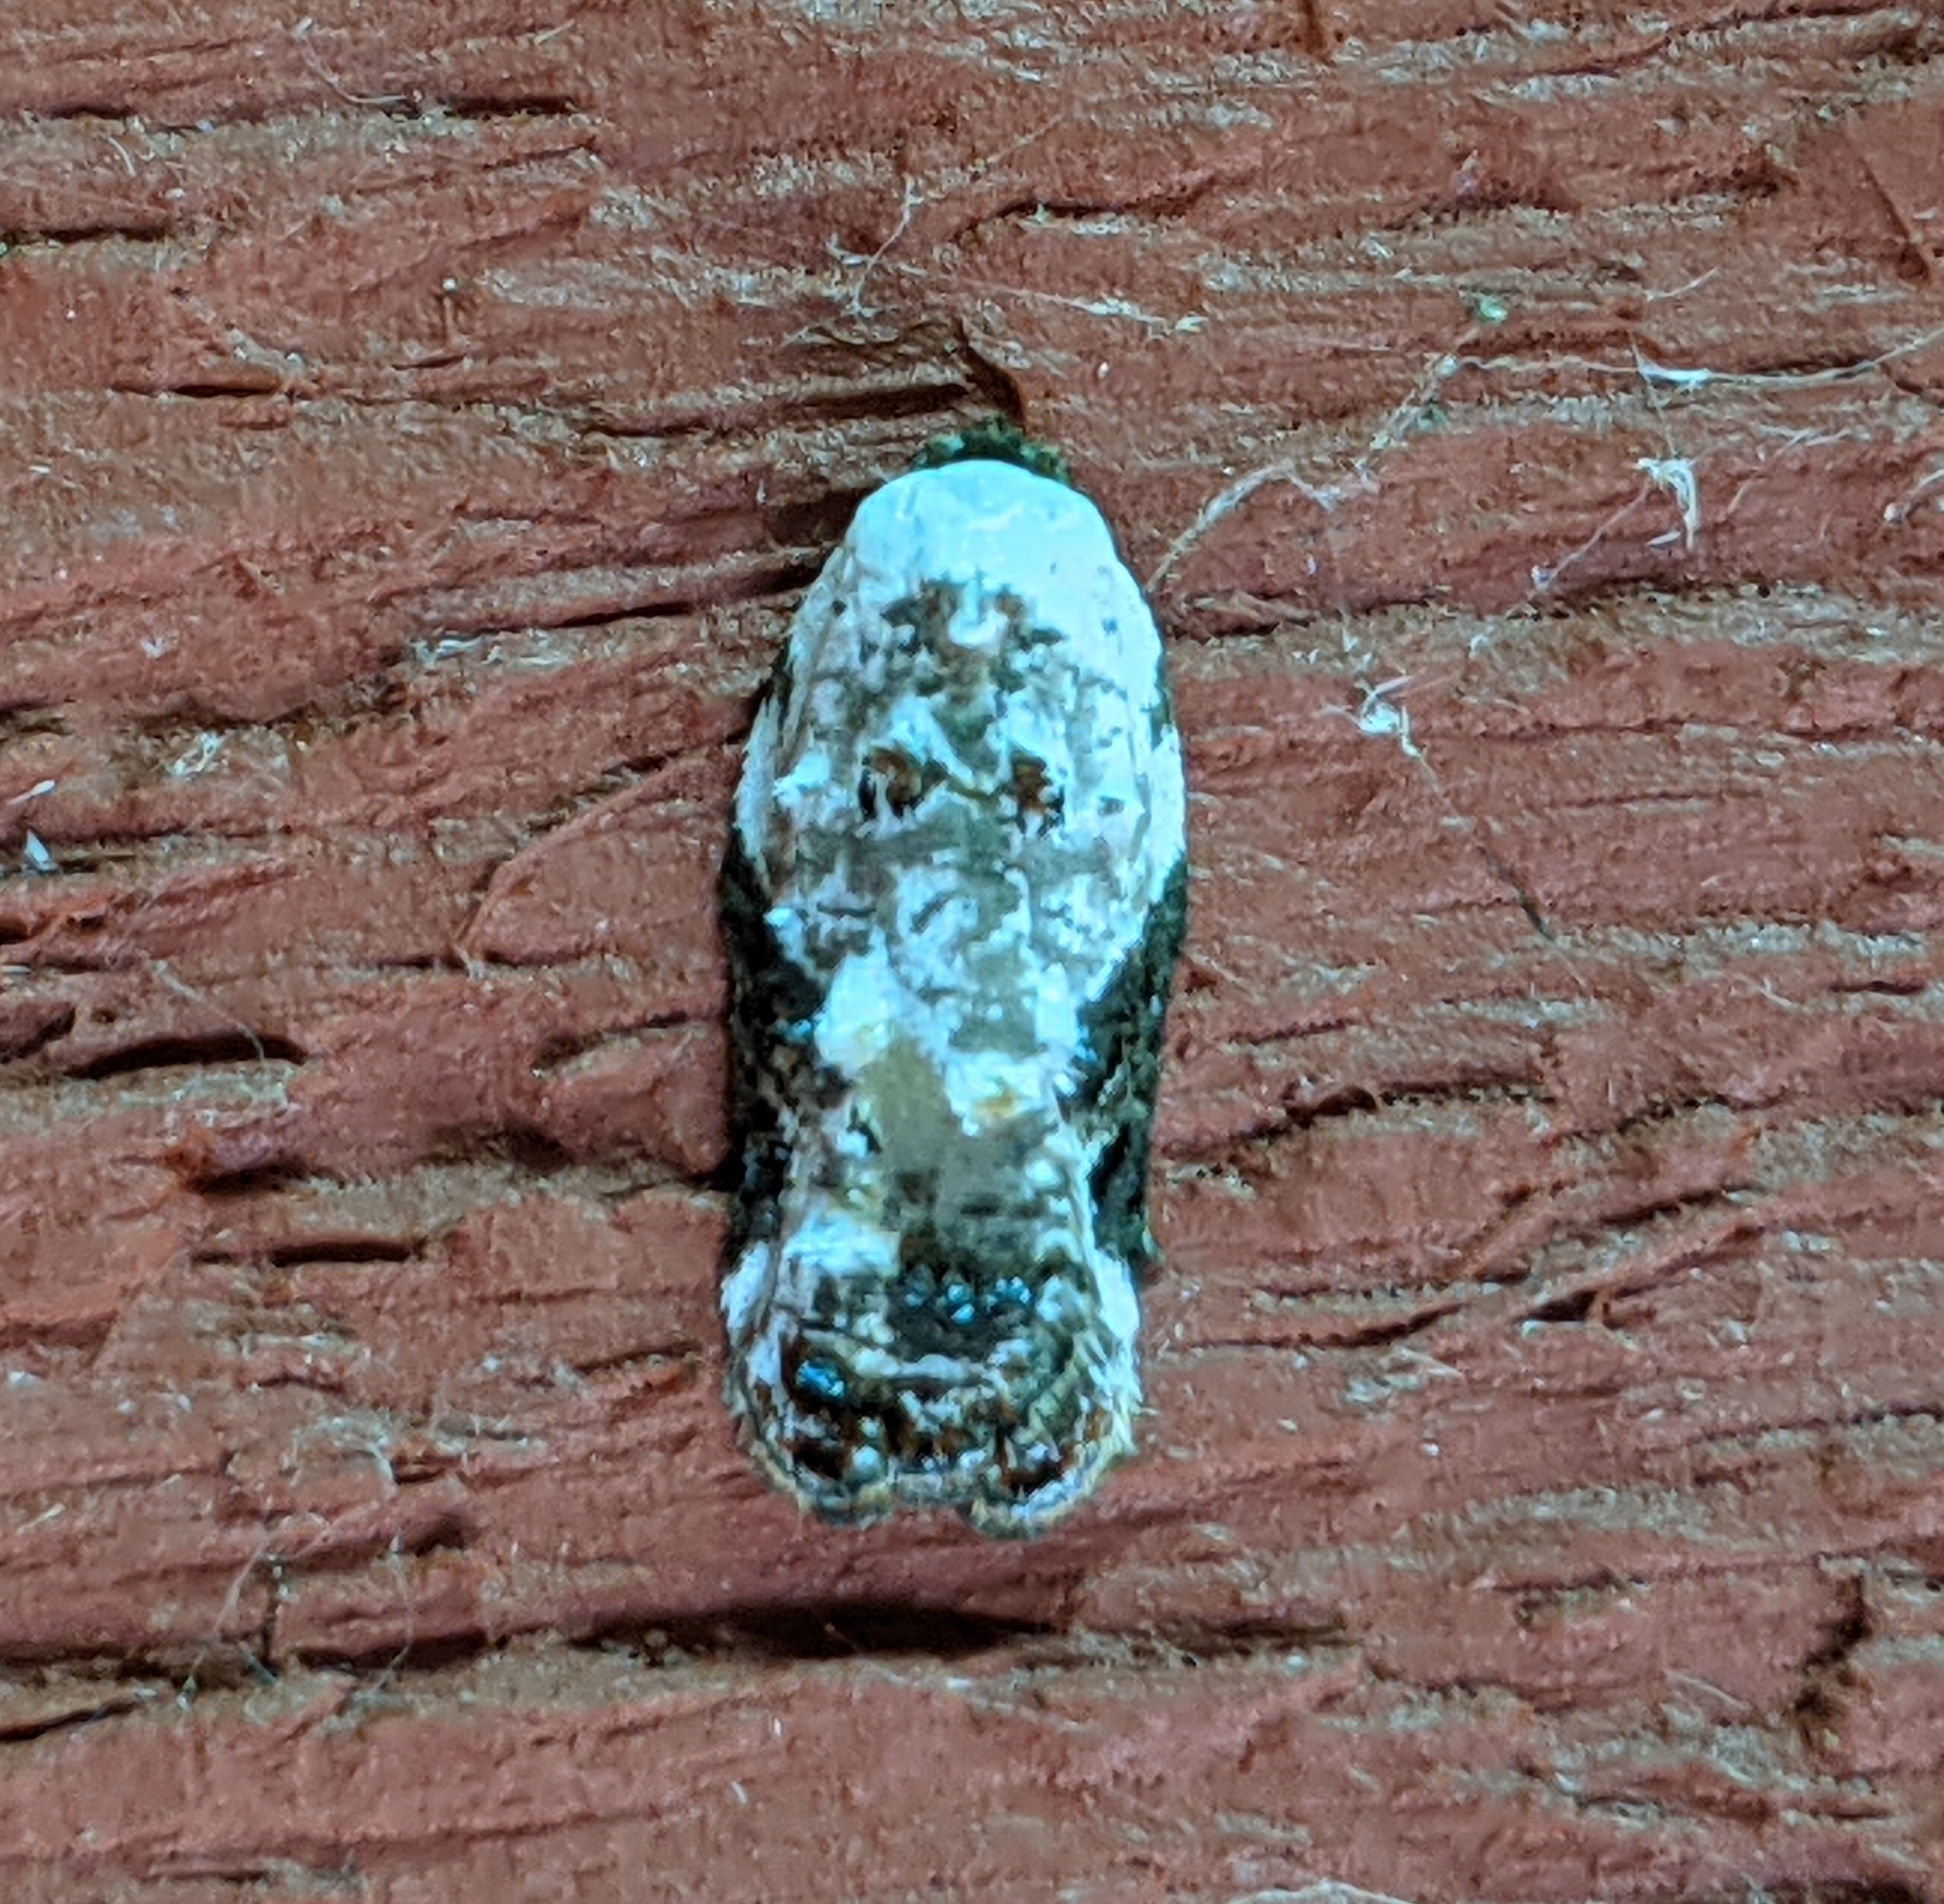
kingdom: Animalia
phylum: Arthropoda
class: Insecta
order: Lepidoptera
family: Tortricidae
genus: Acleris
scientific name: Acleris nivisellana
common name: Snowy-shouldered acleris moth
